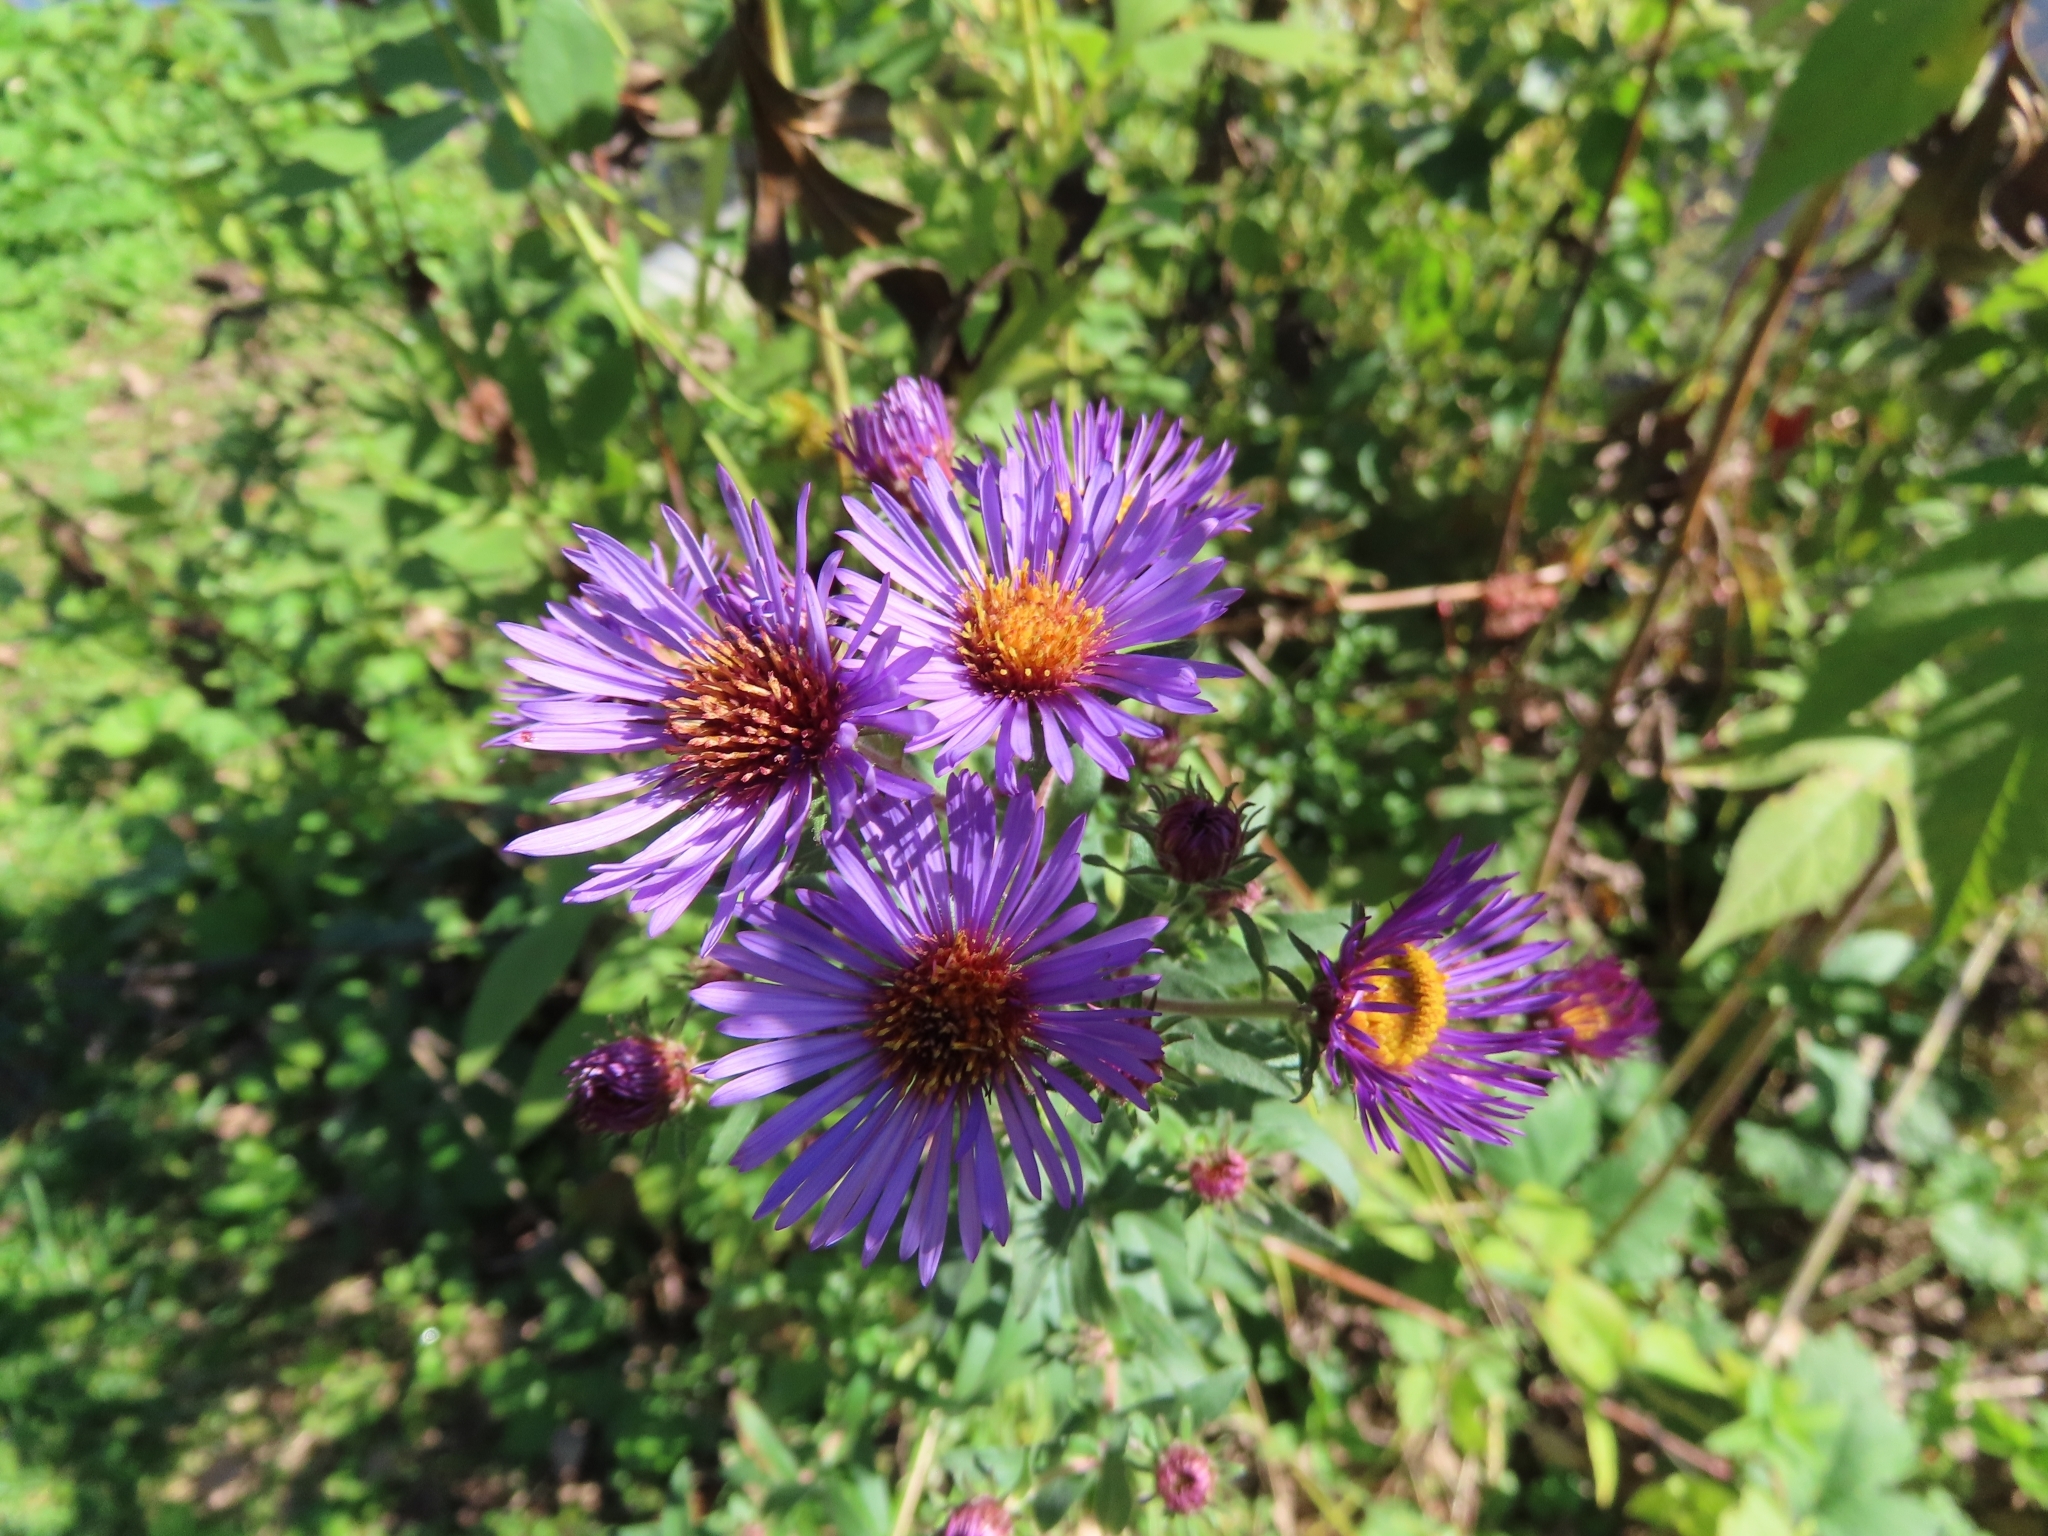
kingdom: Plantae
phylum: Tracheophyta
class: Magnoliopsida
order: Asterales
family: Asteraceae
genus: Symphyotrichum
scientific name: Symphyotrichum novae-angliae
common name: Michaelmas daisy
